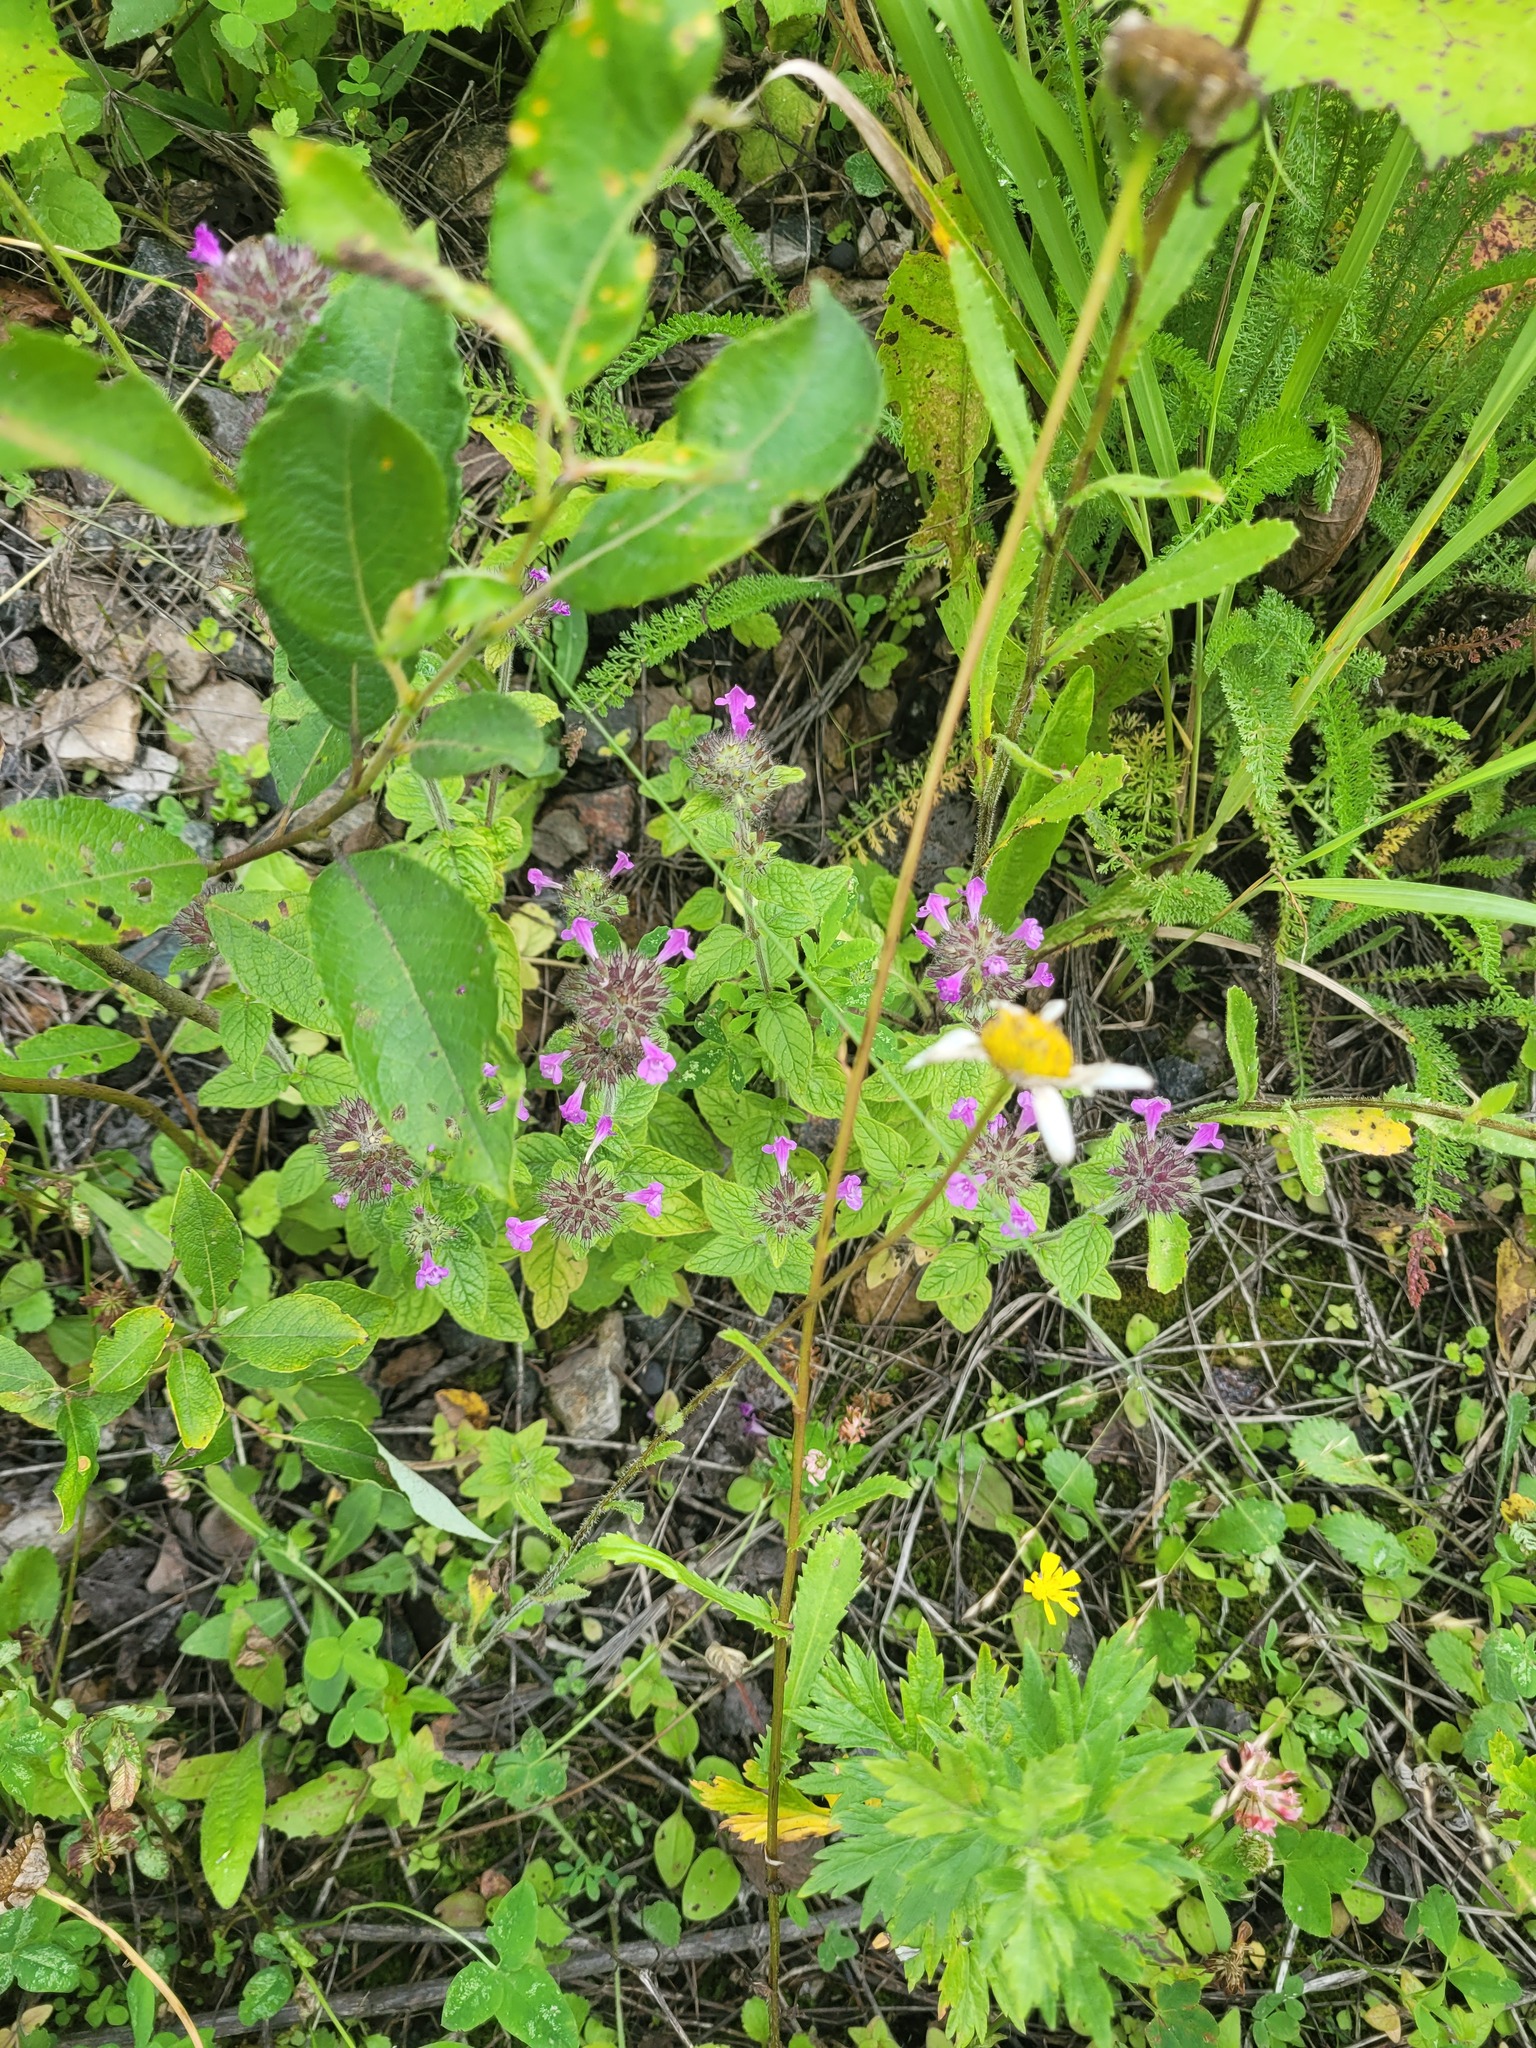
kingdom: Plantae
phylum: Tracheophyta
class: Magnoliopsida
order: Lamiales
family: Lamiaceae
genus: Clinopodium
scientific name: Clinopodium vulgare
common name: Wild basil
